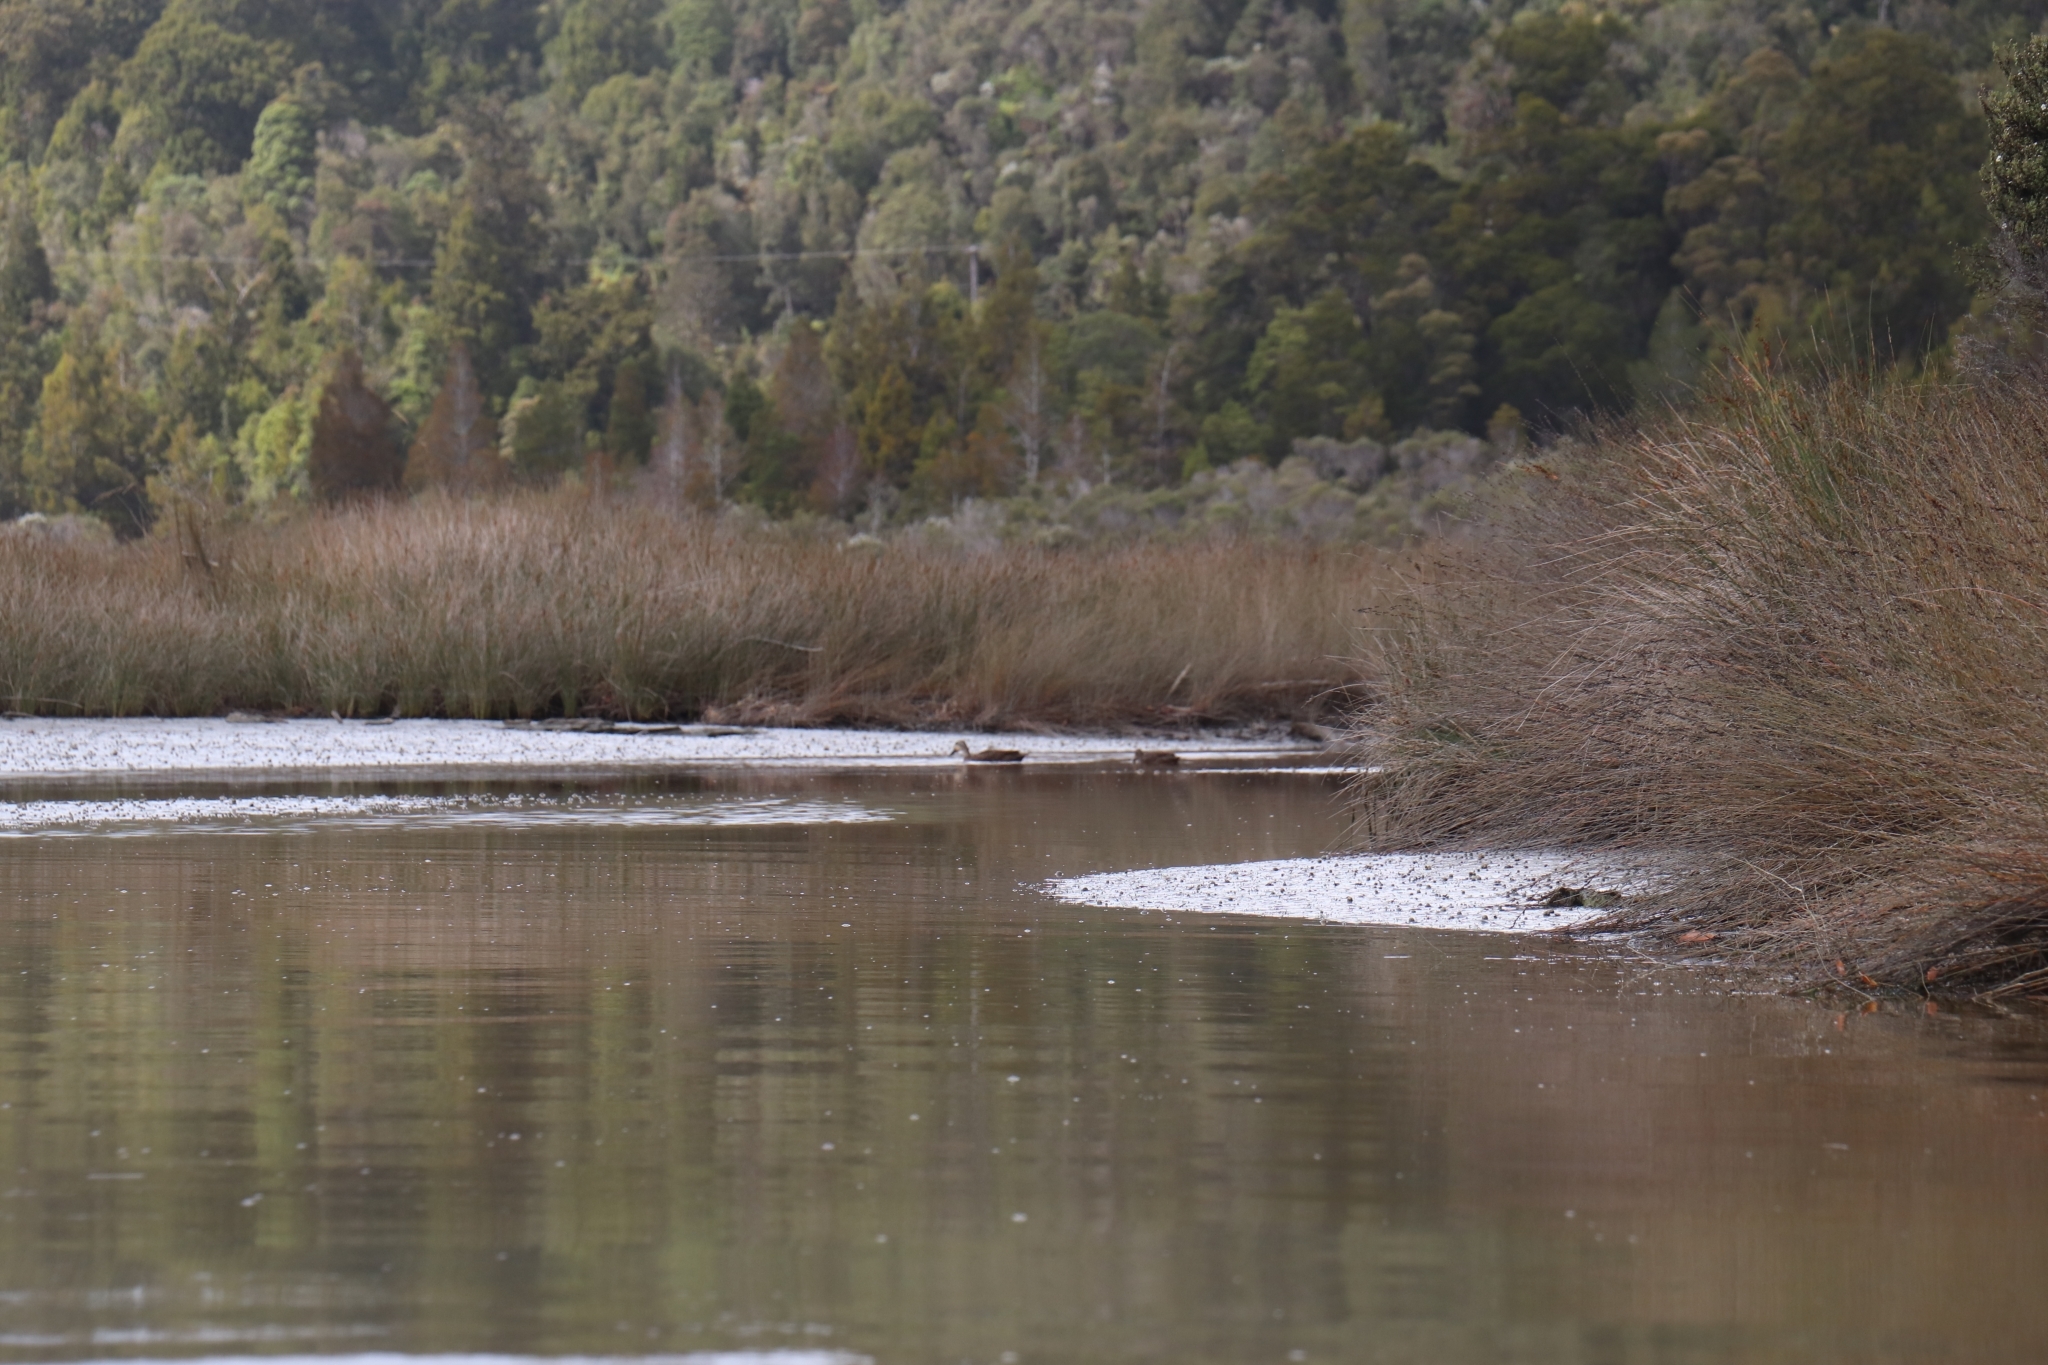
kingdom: Animalia
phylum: Chordata
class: Aves
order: Anseriformes
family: Anatidae
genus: Anas
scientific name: Anas
